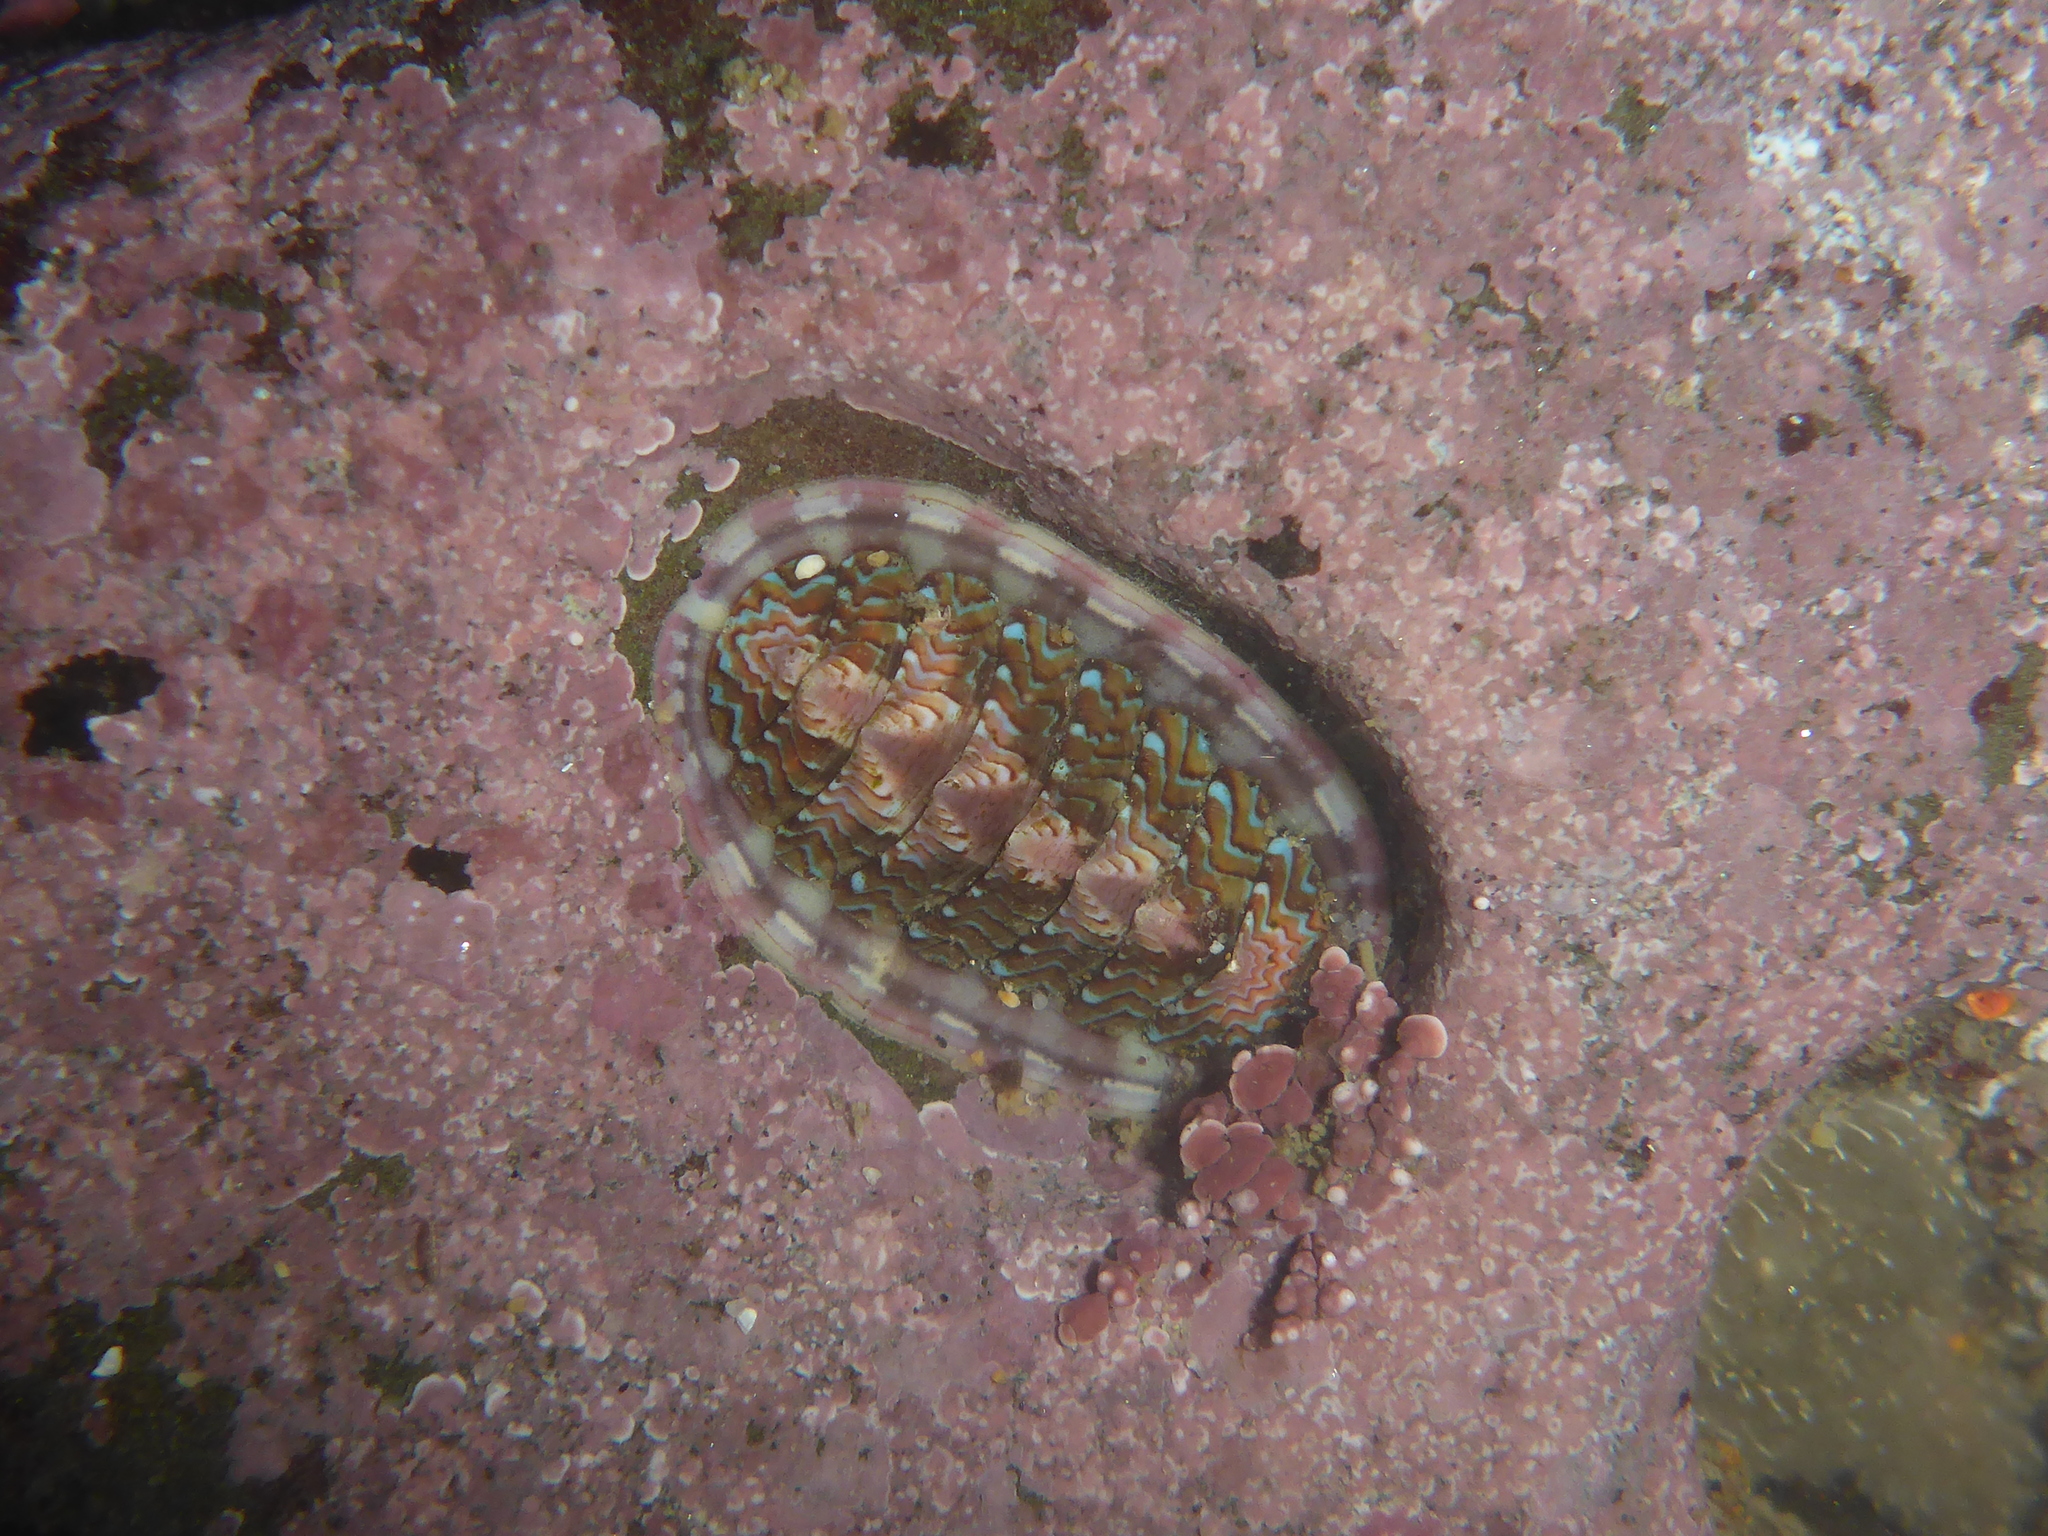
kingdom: Animalia
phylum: Mollusca
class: Polyplacophora
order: Chitonida
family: Tonicellidae
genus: Tonicella
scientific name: Tonicella lokii
